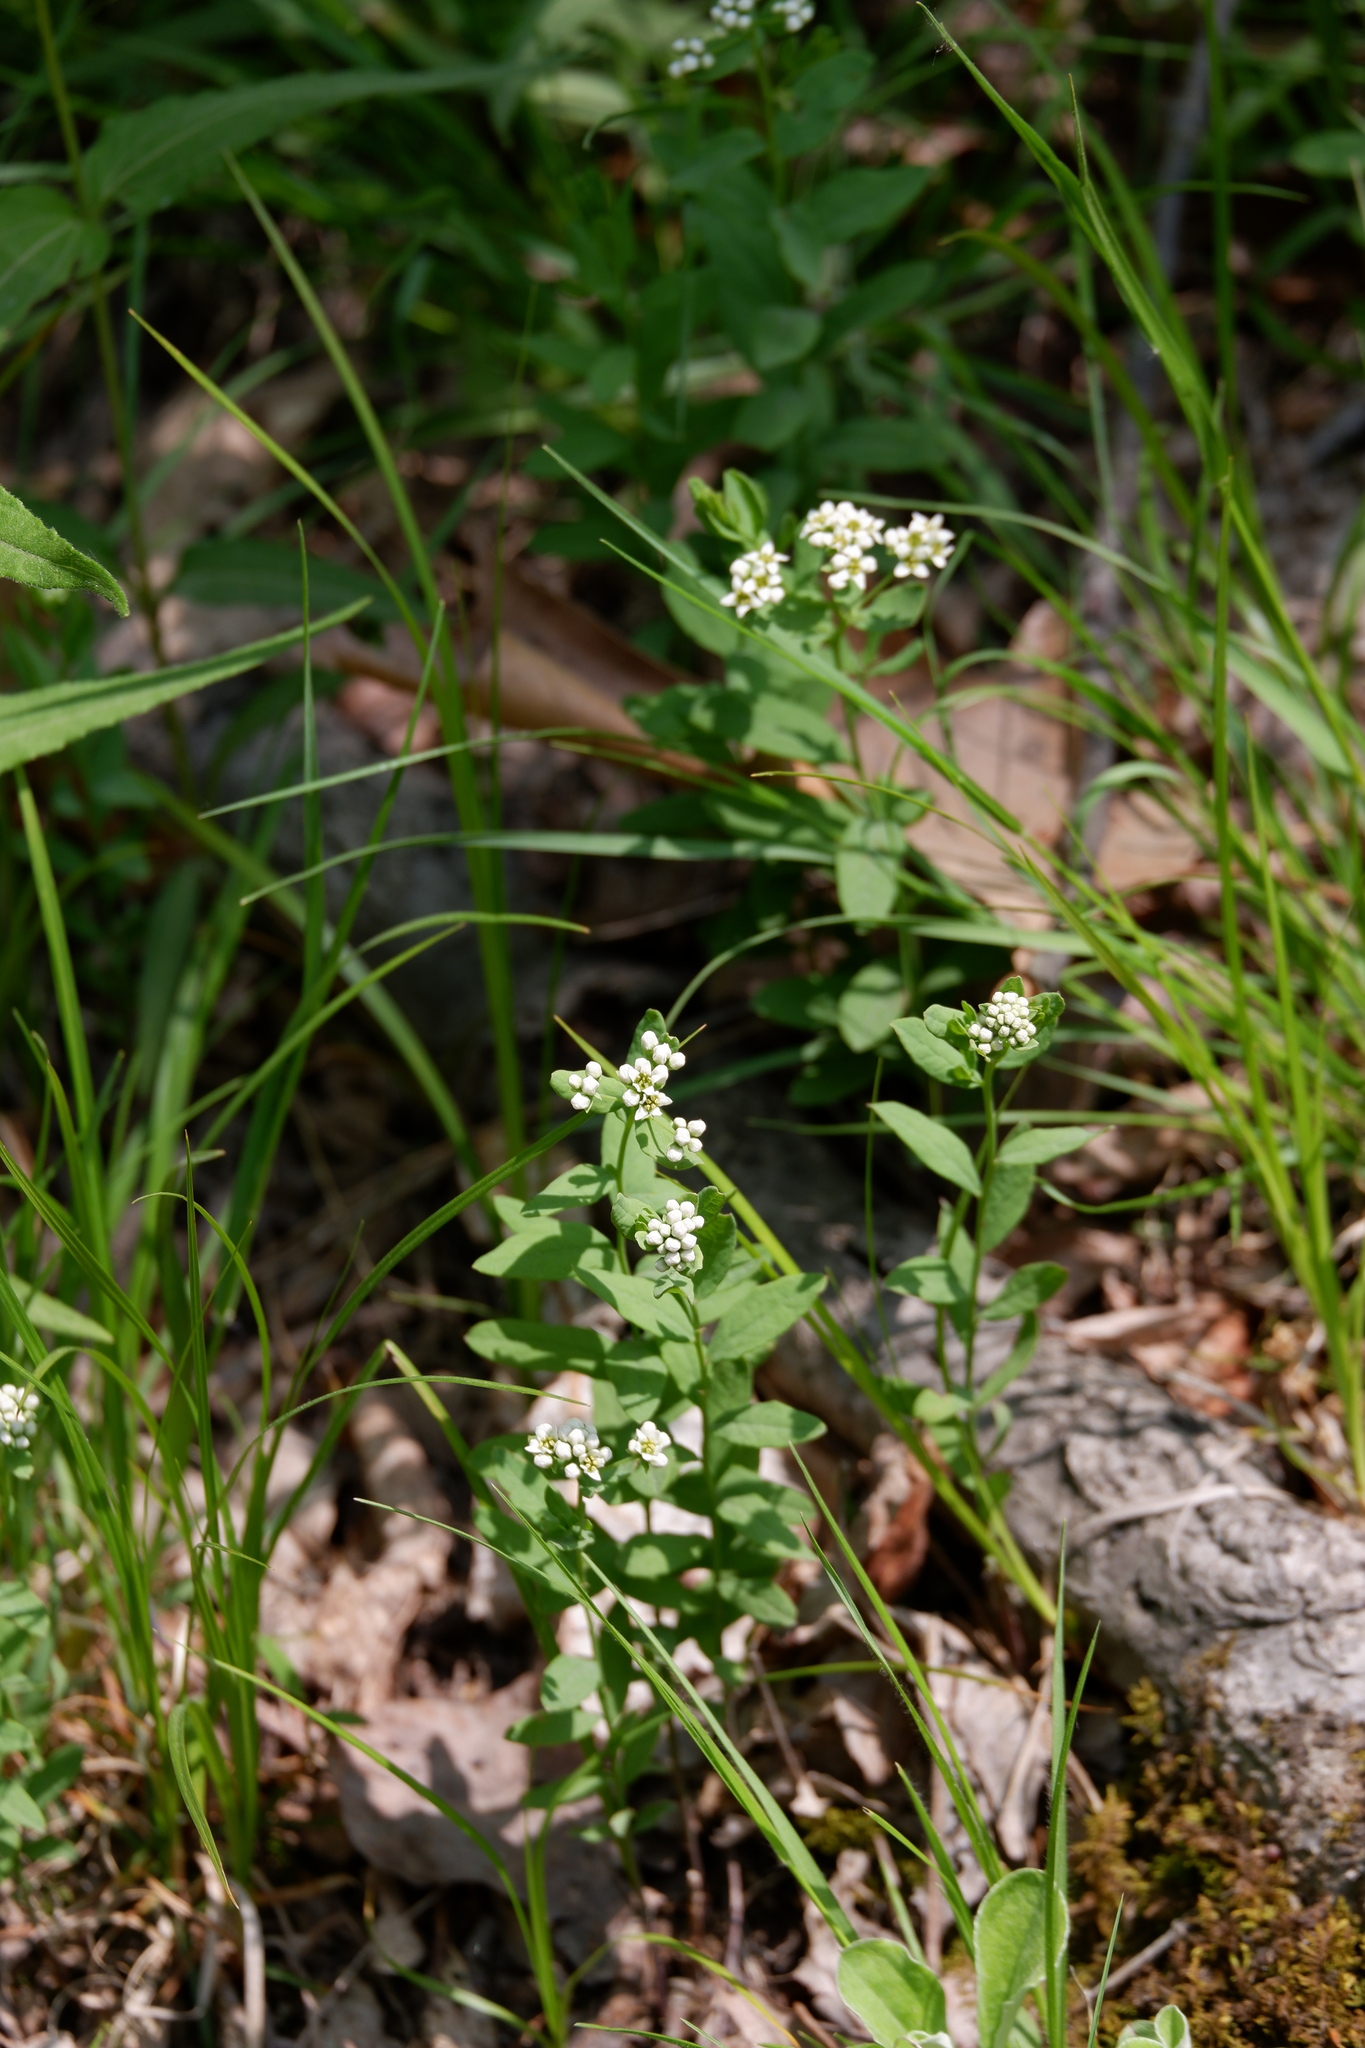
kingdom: Plantae
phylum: Tracheophyta
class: Magnoliopsida
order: Santalales
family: Comandraceae
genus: Comandra
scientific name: Comandra umbellata
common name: Bastard toadflax
